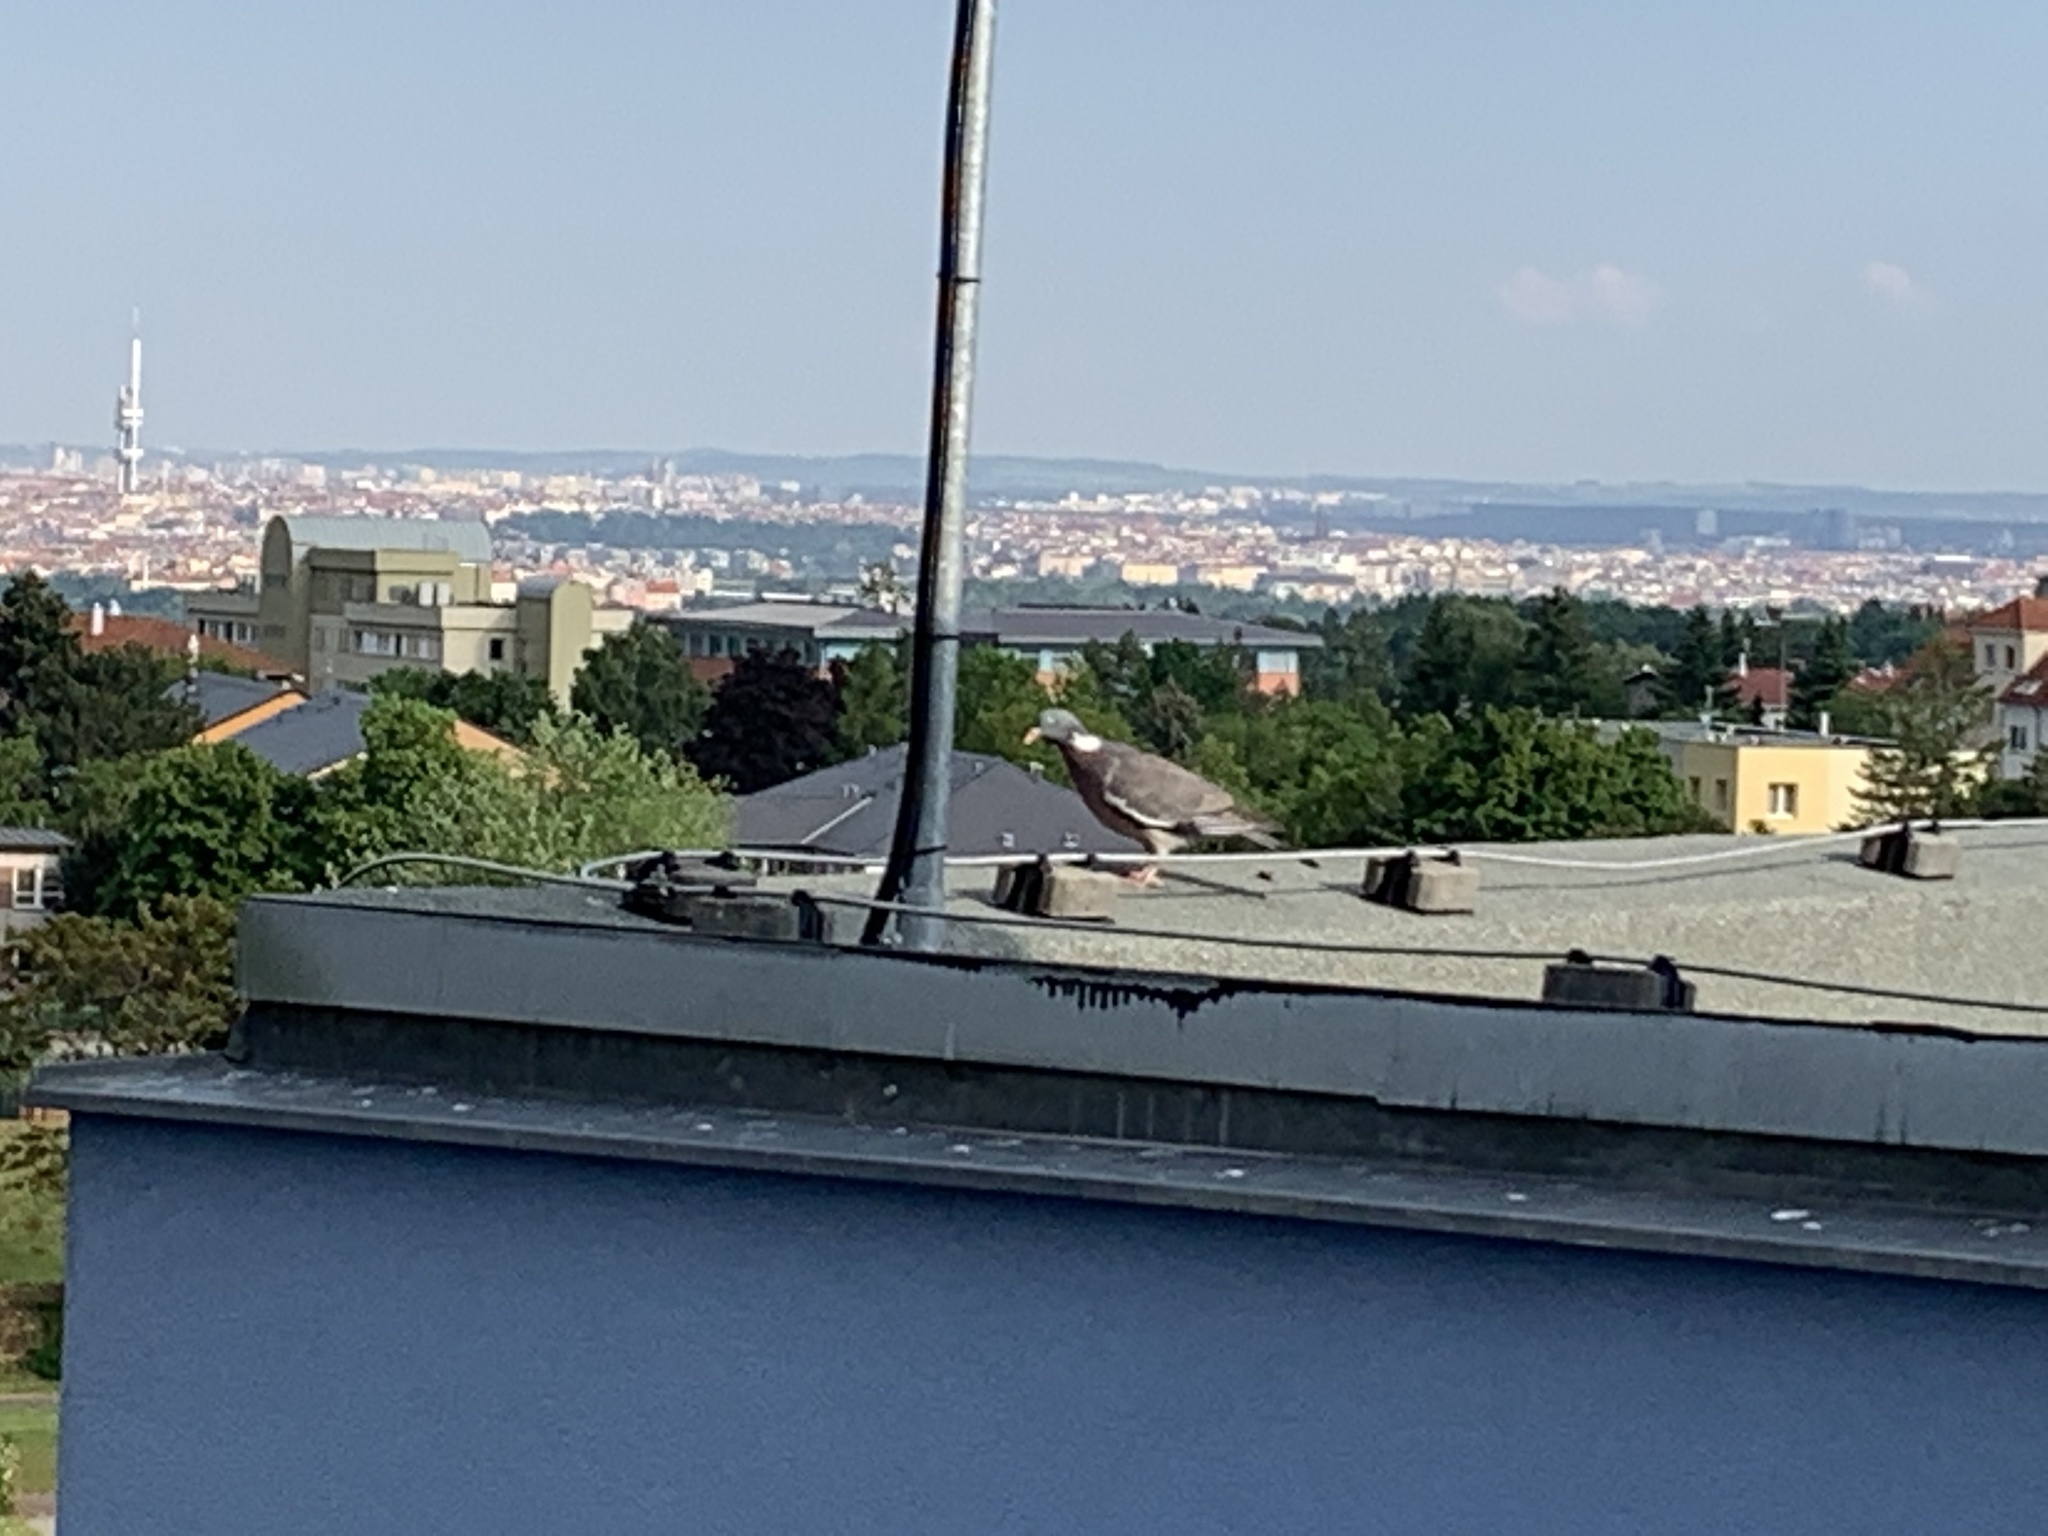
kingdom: Animalia
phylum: Chordata
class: Aves
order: Columbiformes
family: Columbidae
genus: Columba
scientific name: Columba palumbus
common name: Common wood pigeon
